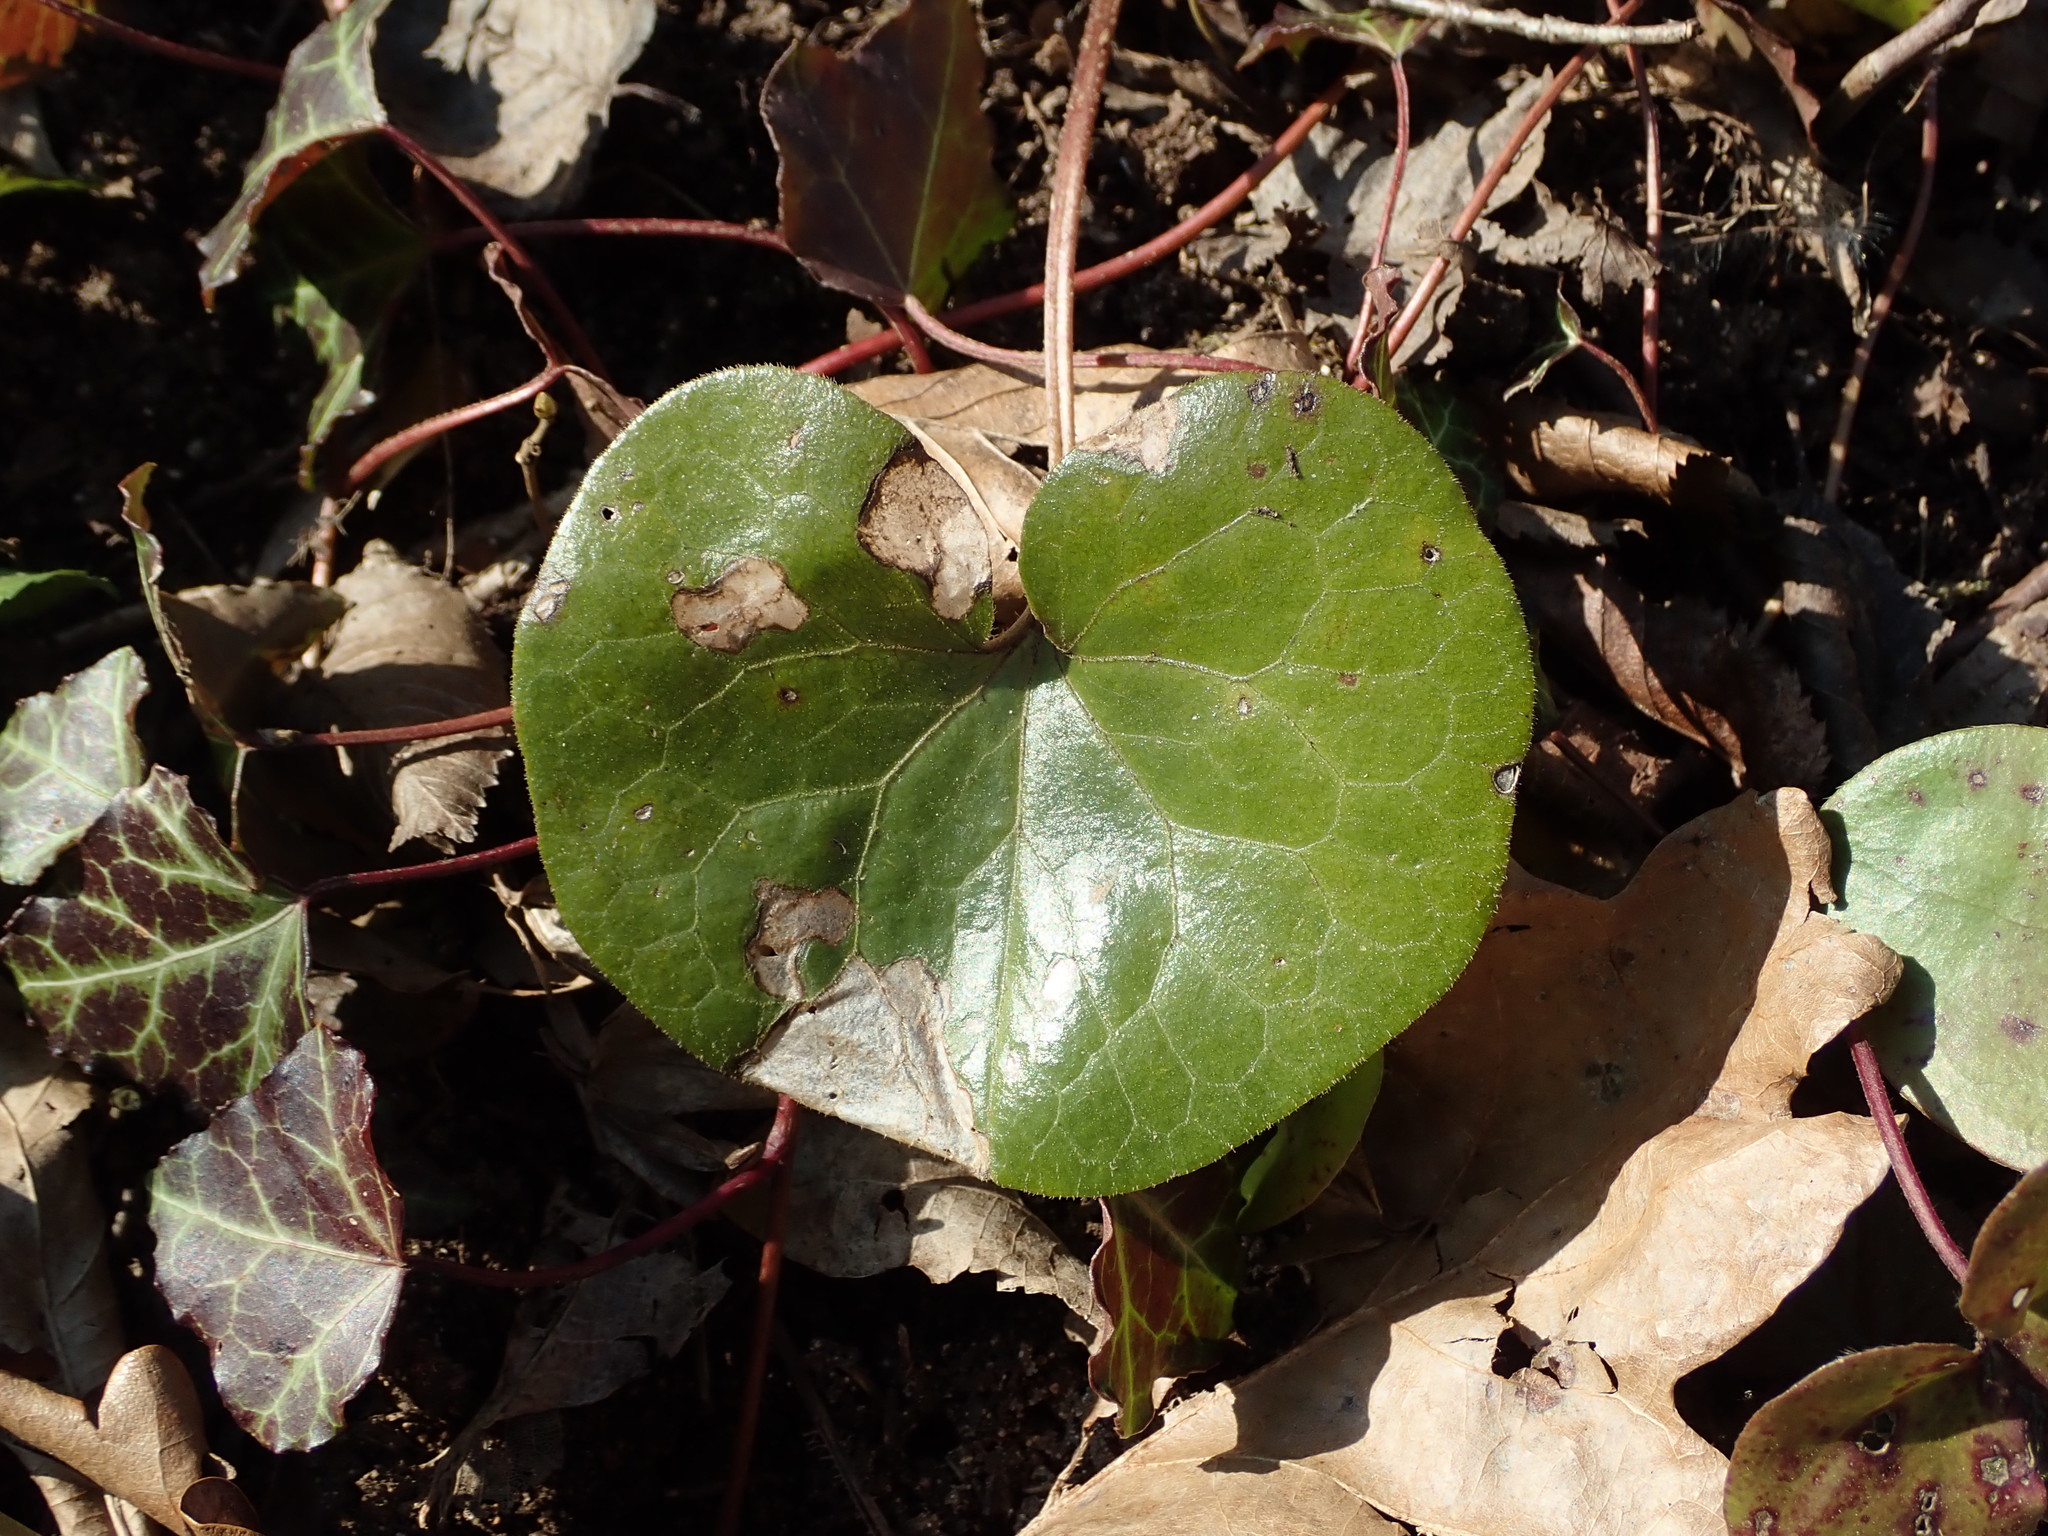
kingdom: Plantae
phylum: Tracheophyta
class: Magnoliopsida
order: Piperales
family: Aristolochiaceae
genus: Asarum
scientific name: Asarum europaeum
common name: Asarabacca
